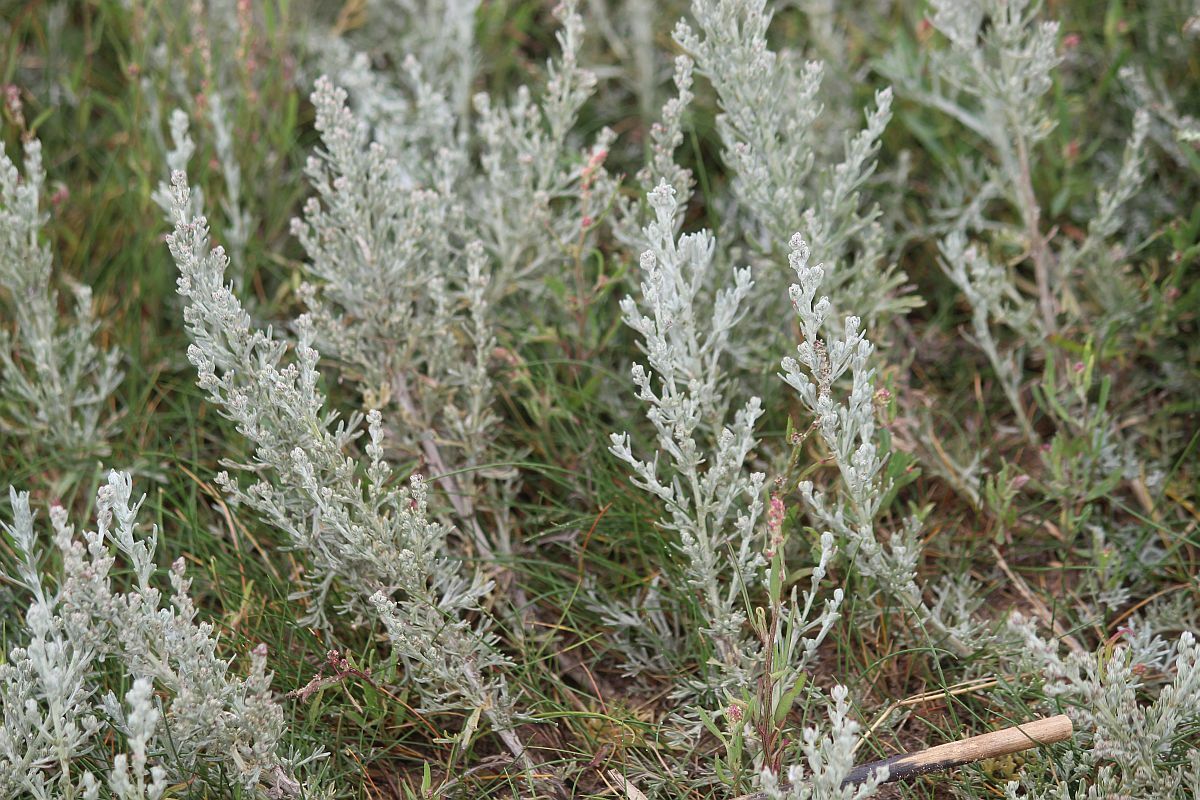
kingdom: Plantae
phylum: Tracheophyta
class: Magnoliopsida
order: Asterales
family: Asteraceae
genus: Artemisia
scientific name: Artemisia maritima
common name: Wormseed
